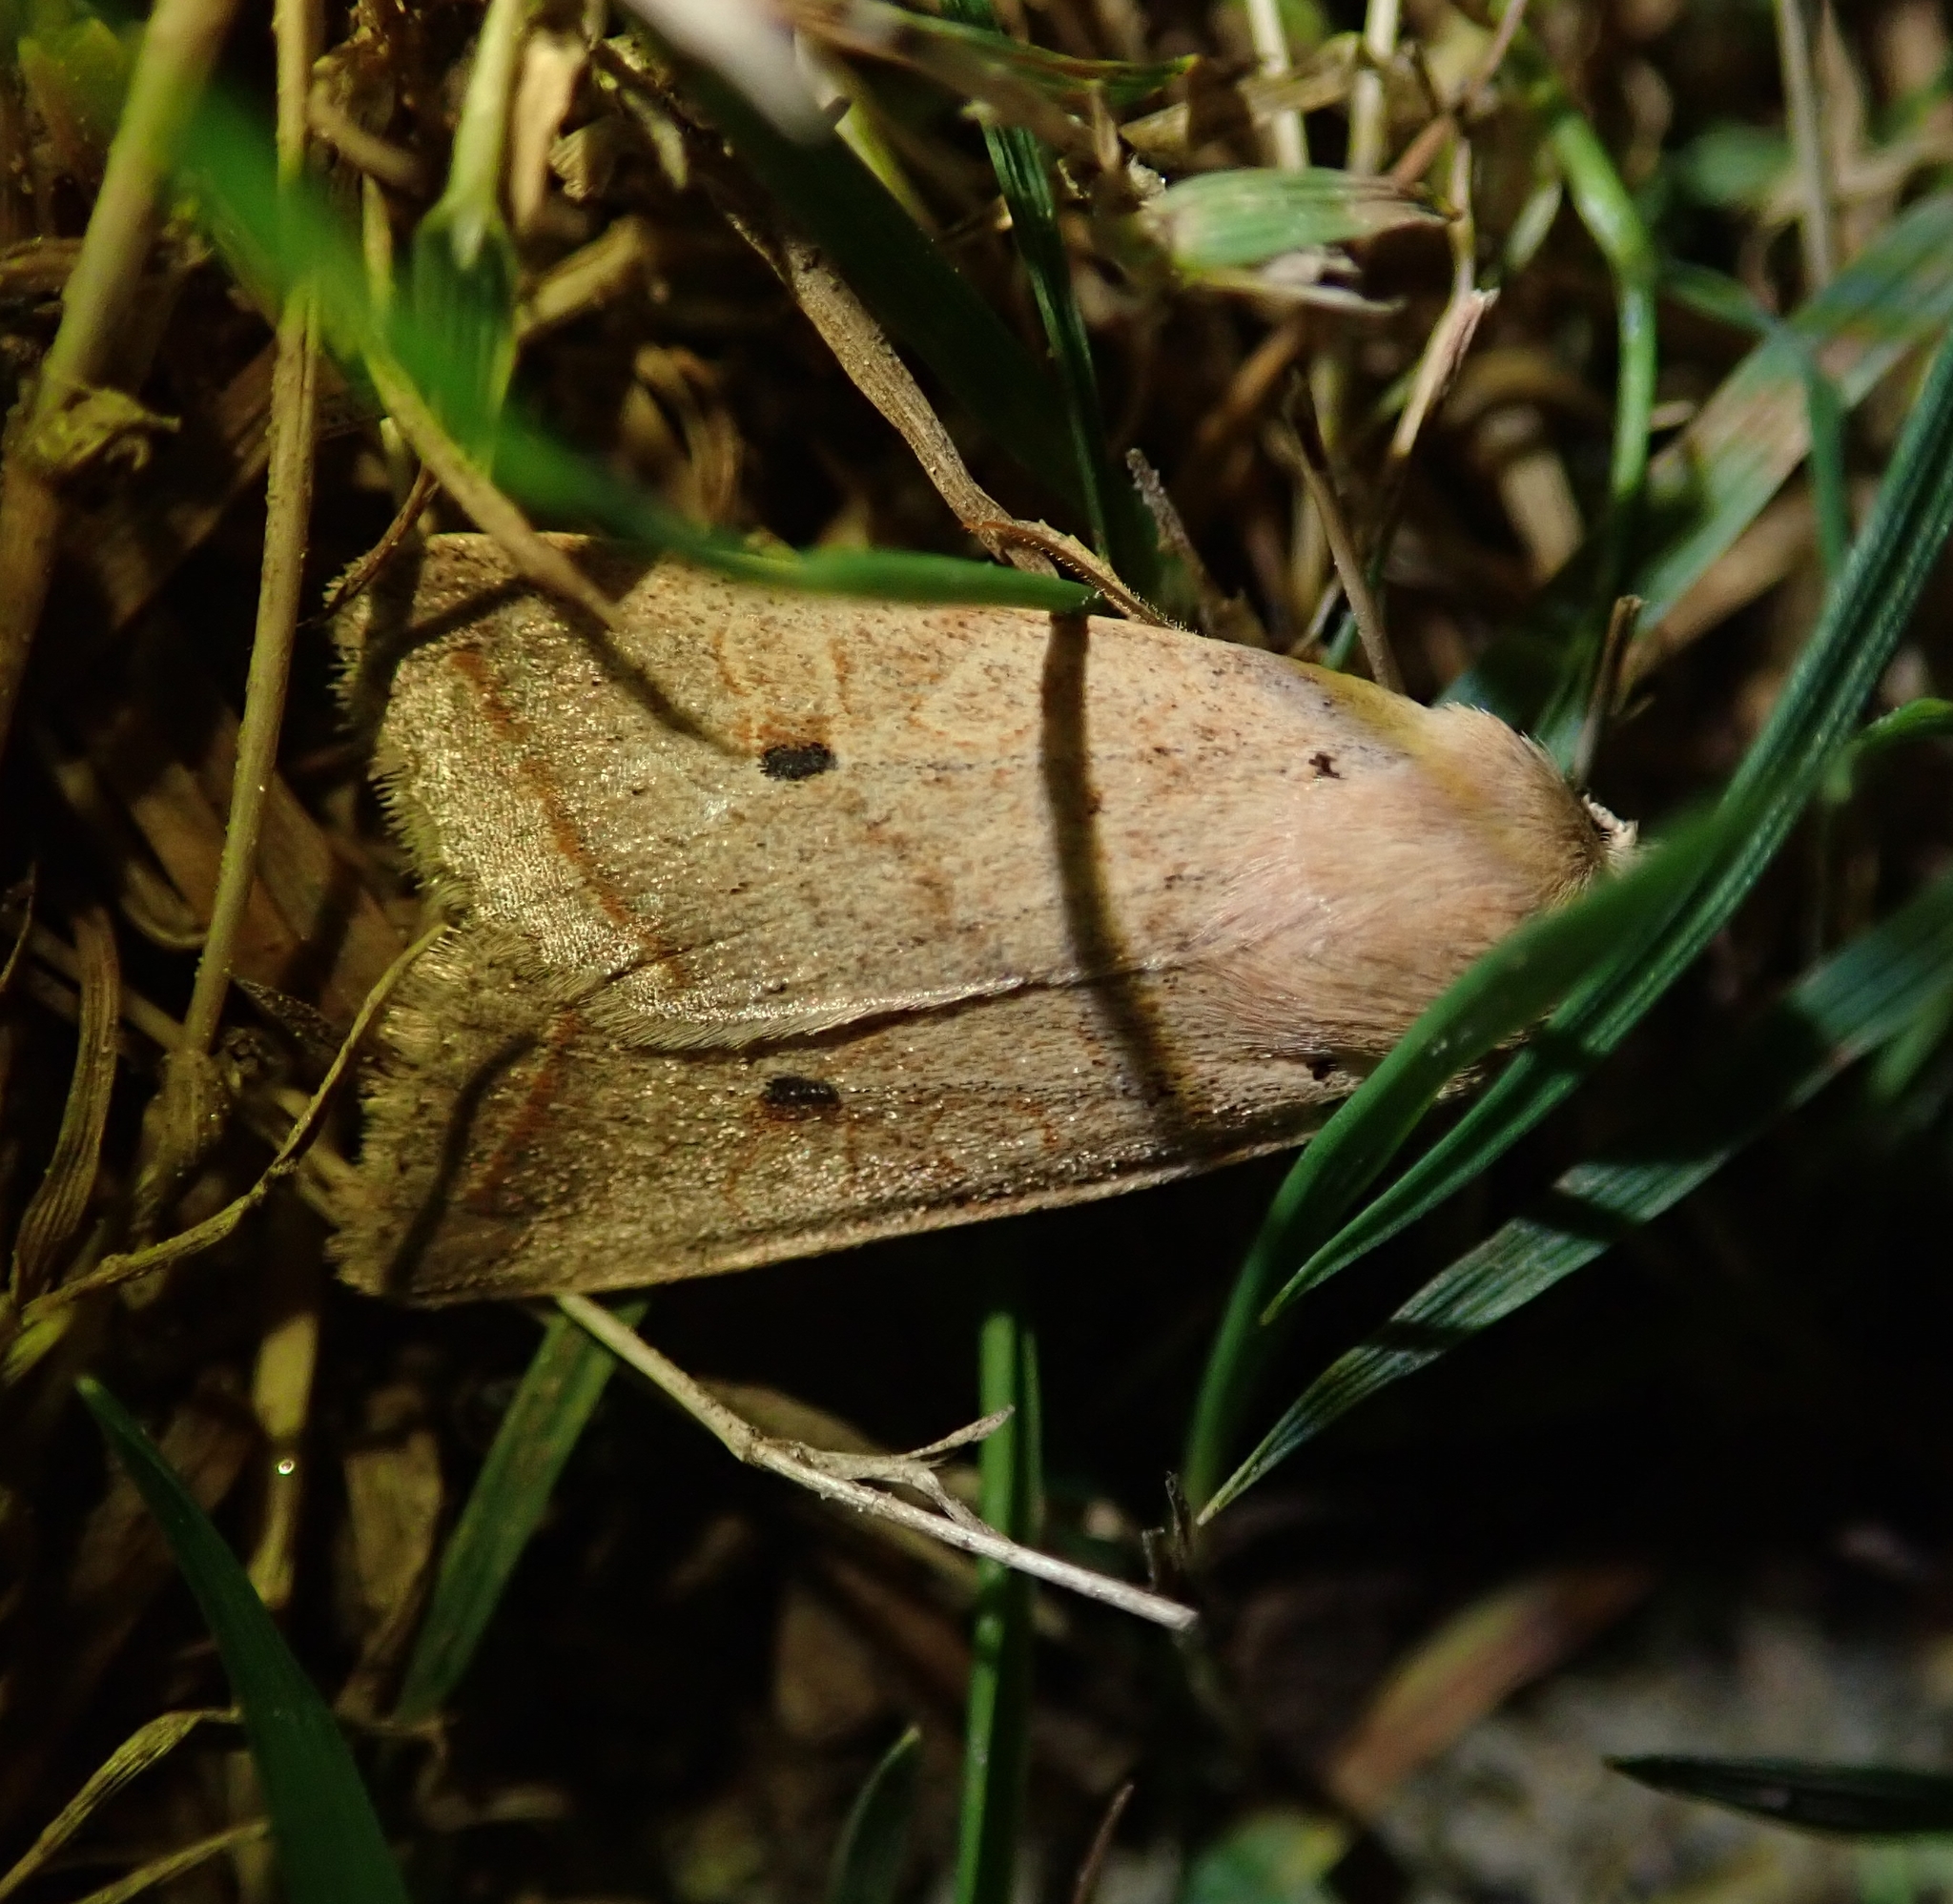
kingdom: Animalia
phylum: Arthropoda
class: Insecta
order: Lepidoptera
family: Noctuidae
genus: Agrochola
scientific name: Agrochola macilenta
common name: Yellow-line quaker
